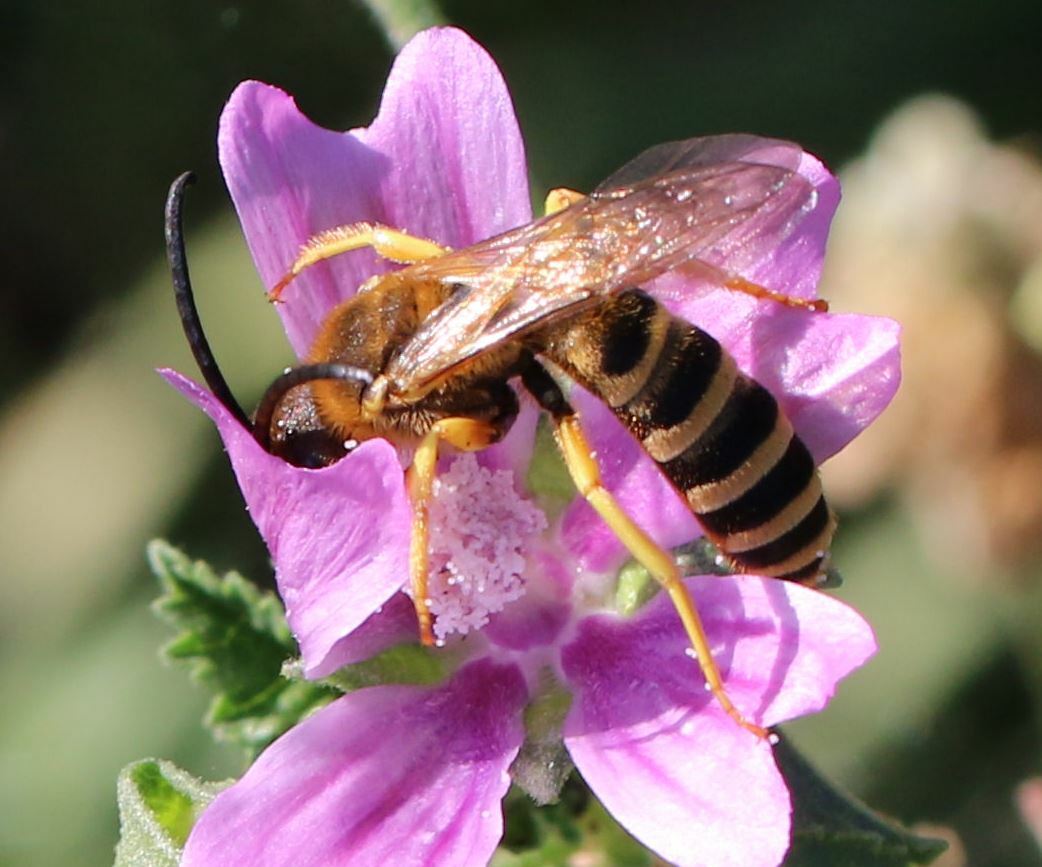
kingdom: Animalia
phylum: Arthropoda
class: Insecta
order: Hymenoptera
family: Halictidae
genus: Halictus
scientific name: Halictus scabiosae
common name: Great banded furrow bee
